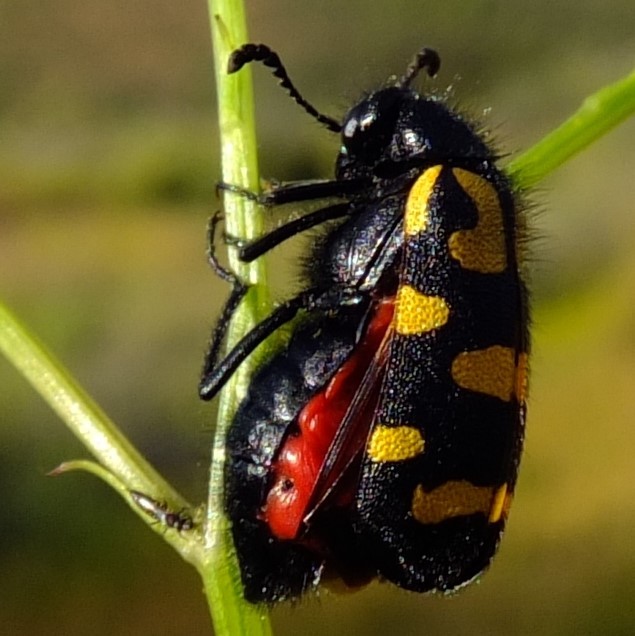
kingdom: Animalia
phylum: Arthropoda
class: Insecta
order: Coleoptera
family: Meloidae
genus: Ceroctis
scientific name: Ceroctis capensis
